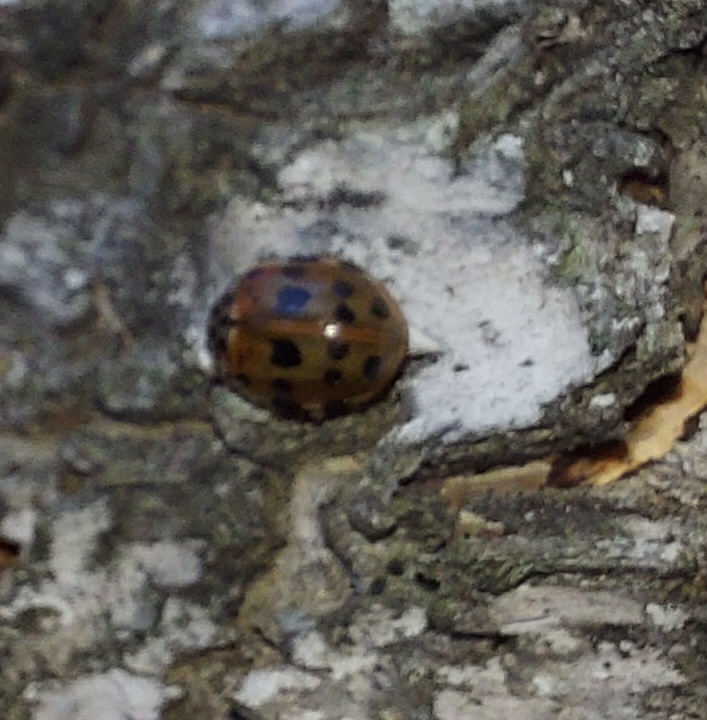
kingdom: Animalia
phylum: Arthropoda
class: Insecta
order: Coleoptera
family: Coccinellidae
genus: Harmonia
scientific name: Harmonia quadripunctata
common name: Cream-streaked ladybird
